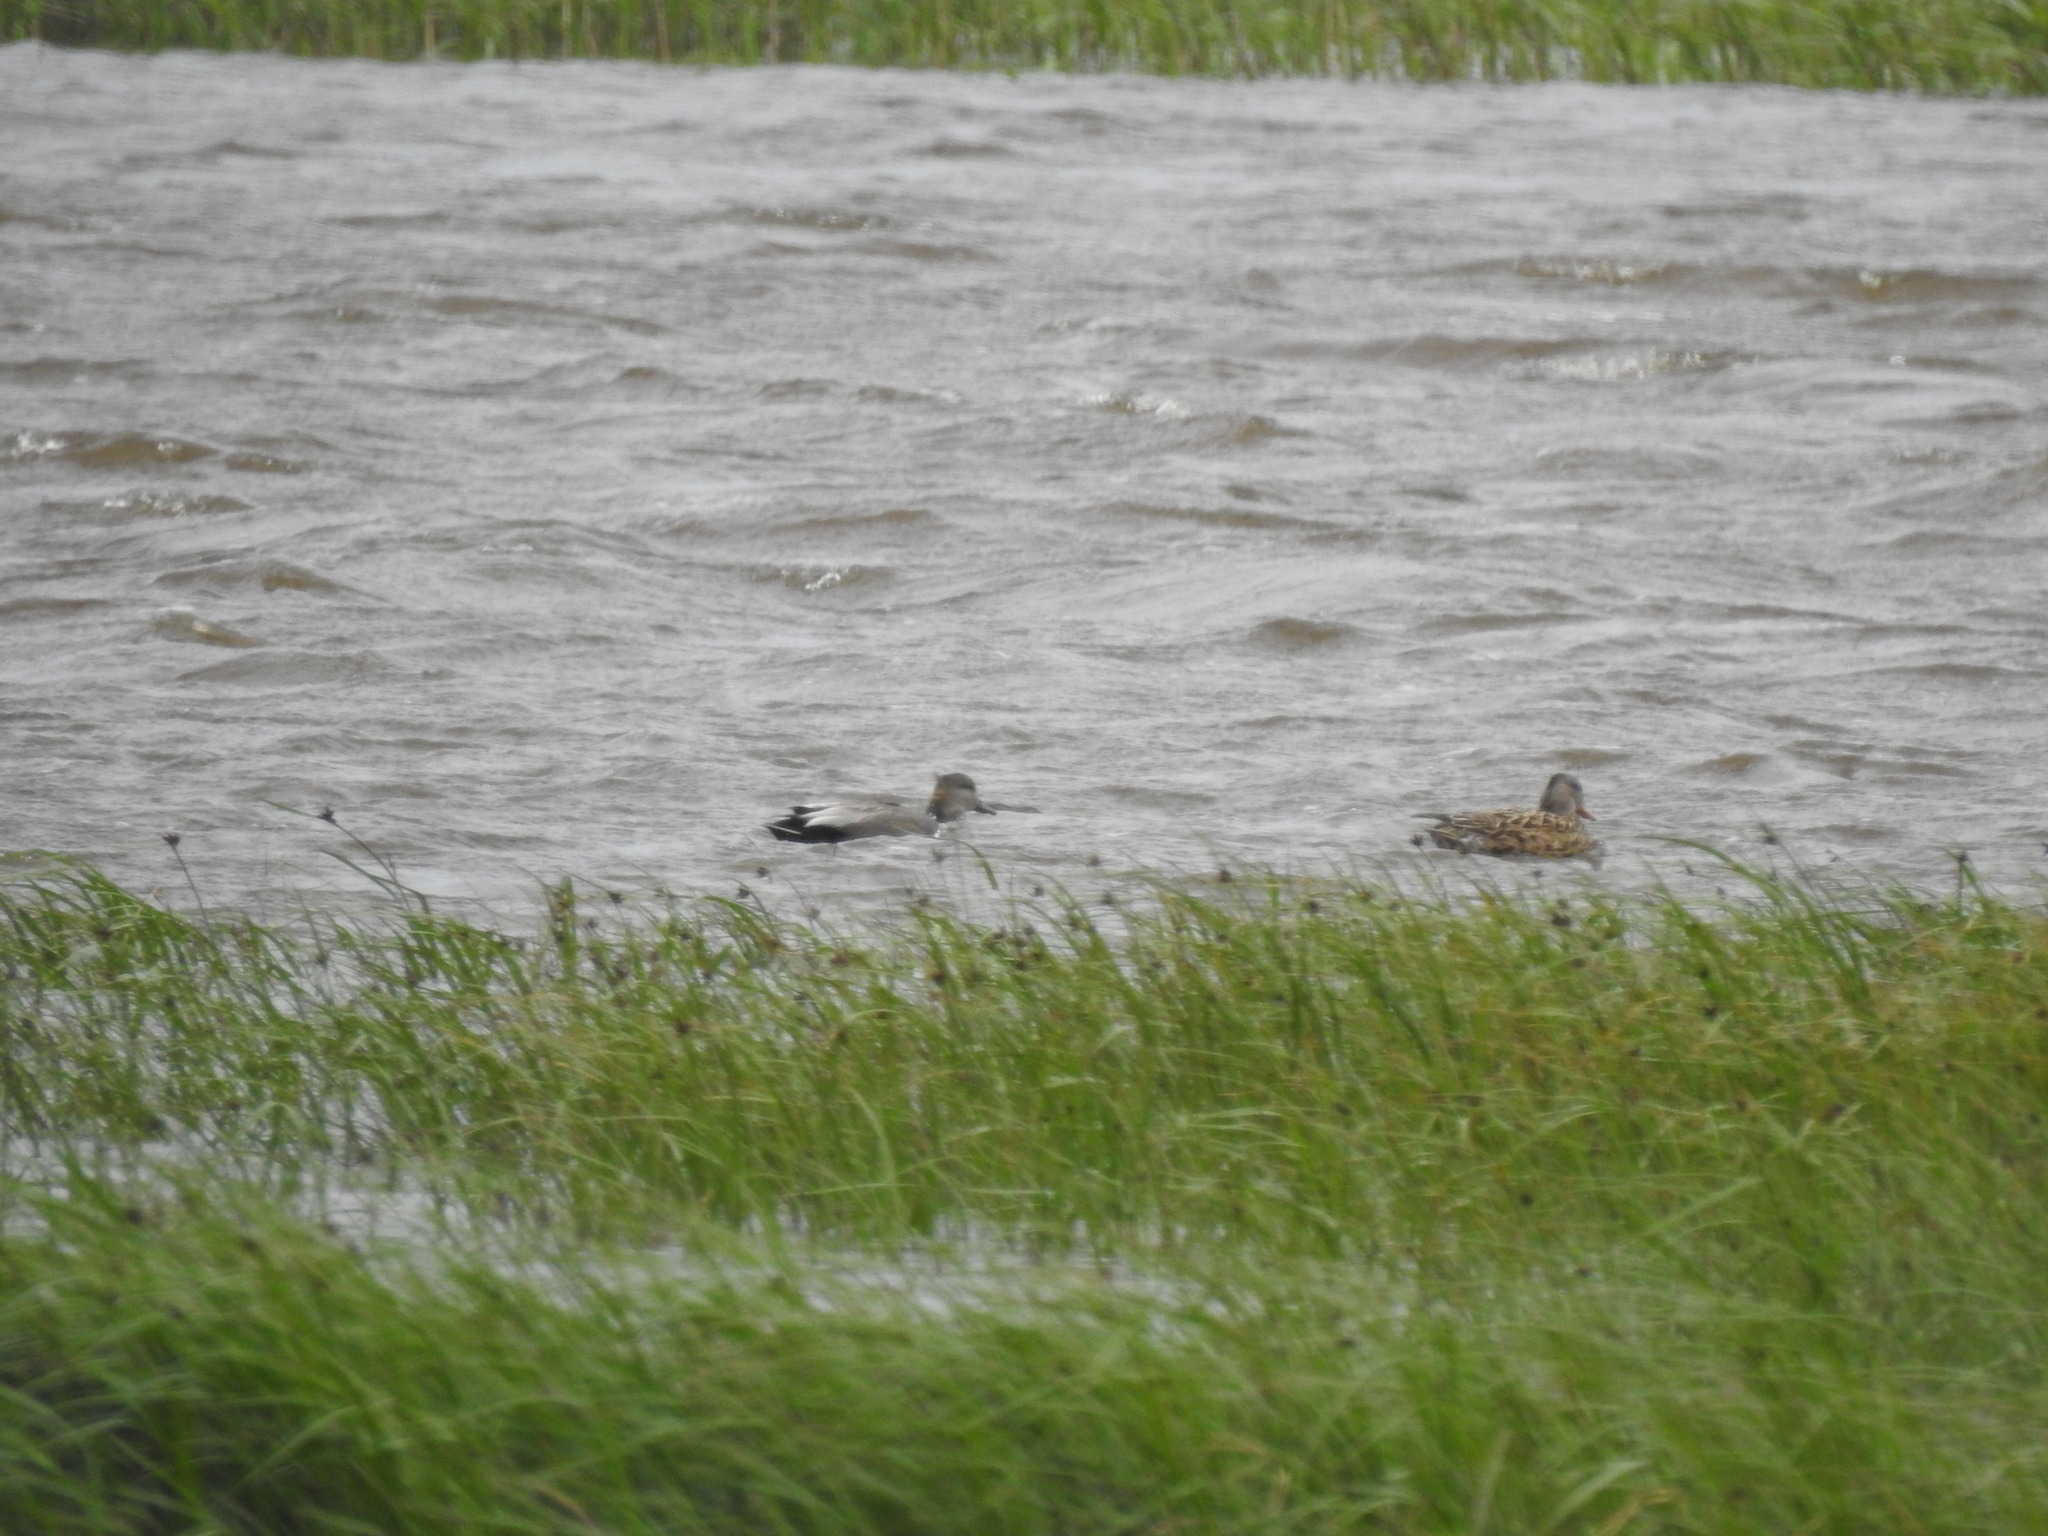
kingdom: Animalia
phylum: Chordata
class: Aves
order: Anseriformes
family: Anatidae
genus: Mareca
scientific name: Mareca strepera
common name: Gadwall
